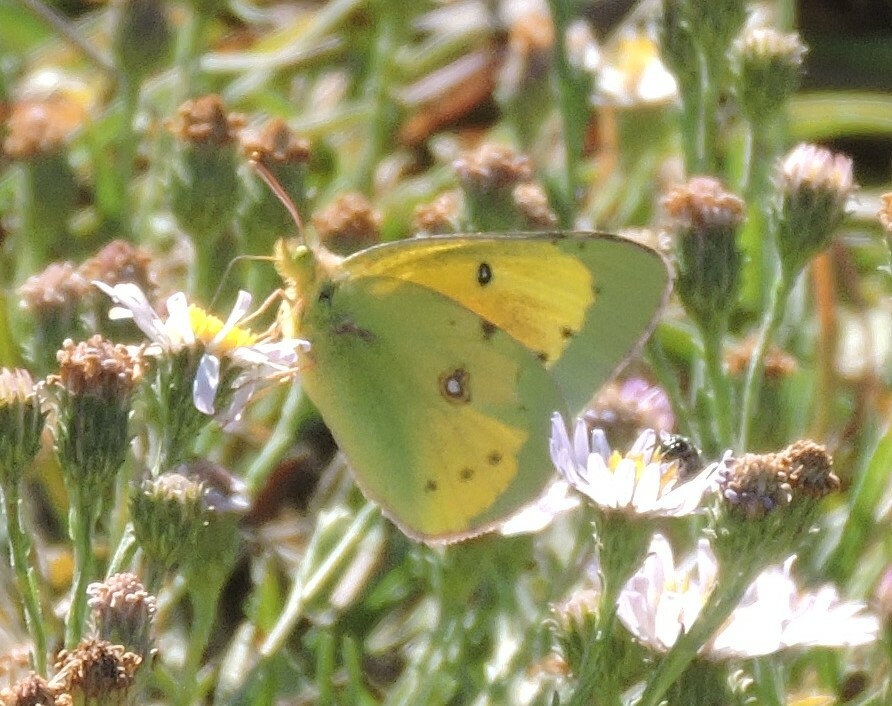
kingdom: Animalia
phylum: Arthropoda
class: Insecta
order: Lepidoptera
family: Pieridae
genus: Colias
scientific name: Colias eurytheme
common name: Alfalfa butterfly
